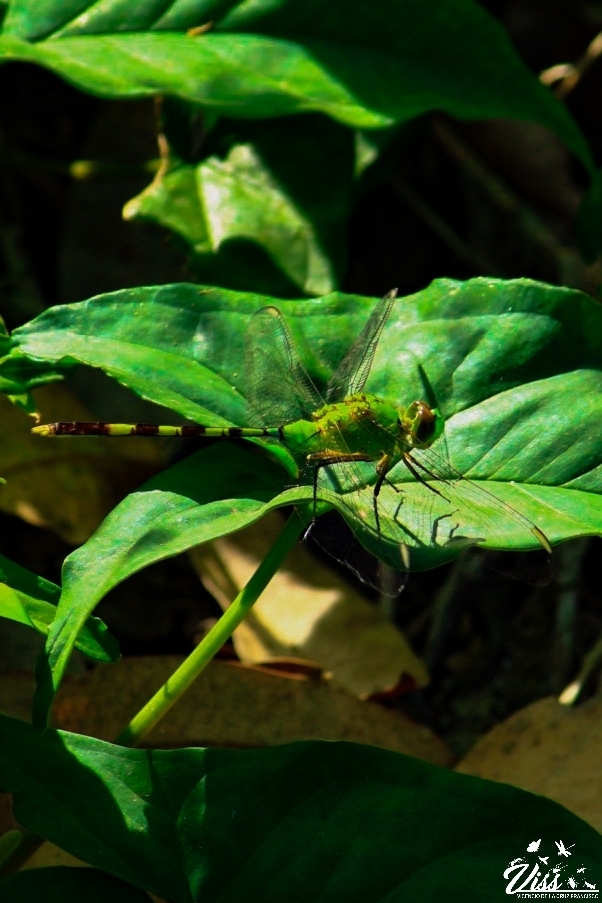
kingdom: Animalia
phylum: Arthropoda
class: Insecta
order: Odonata
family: Libellulidae
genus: Erythemis
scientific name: Erythemis vesiculosa
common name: Great pondhawk
